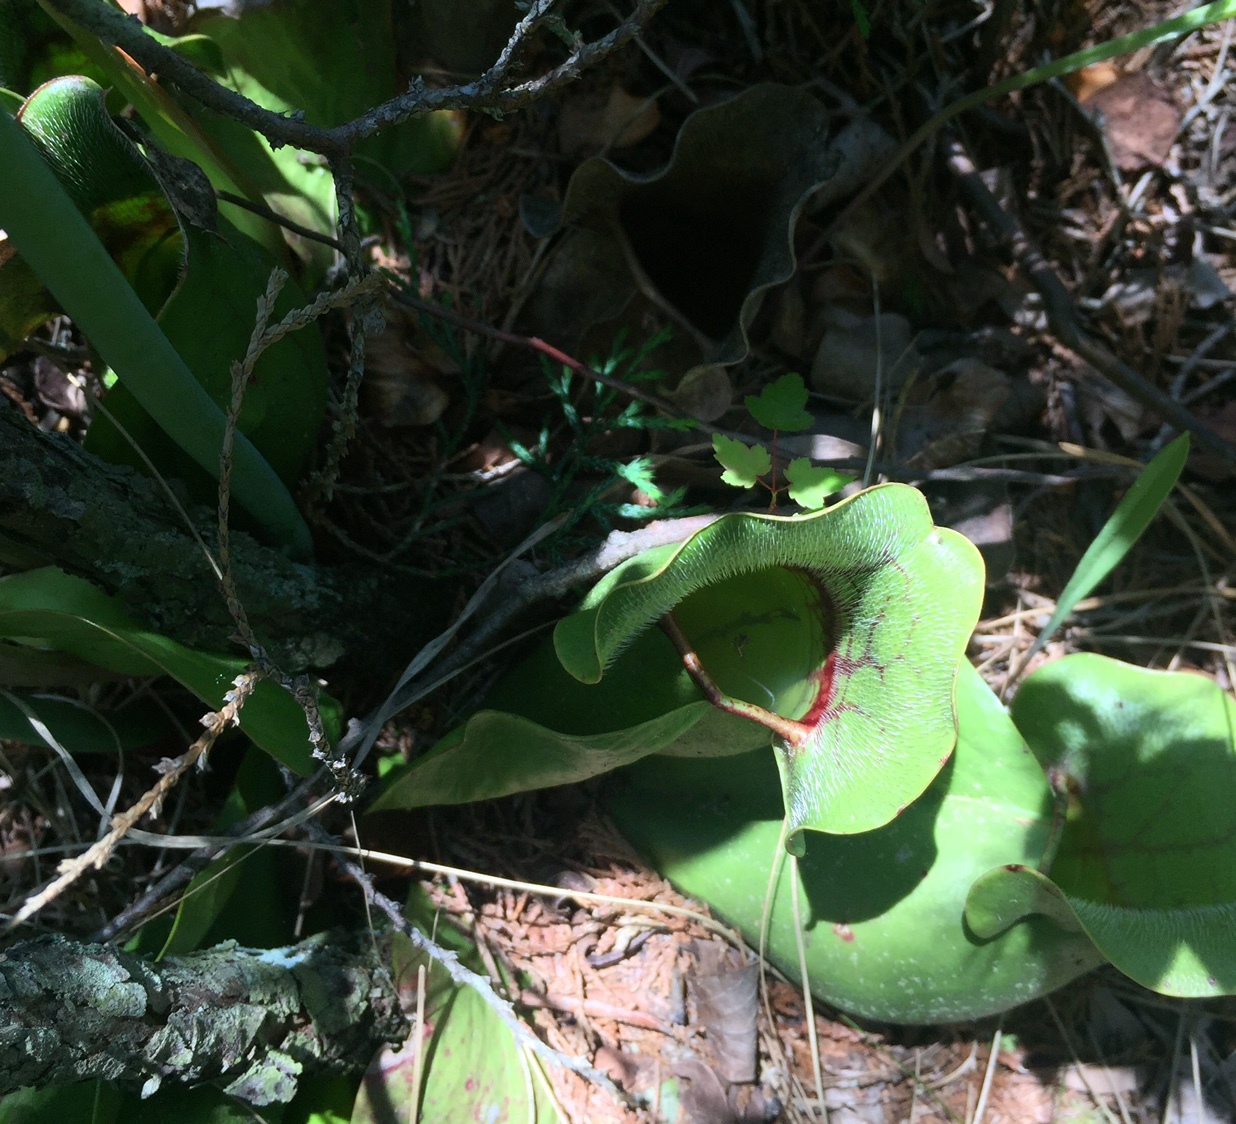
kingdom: Plantae
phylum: Tracheophyta
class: Magnoliopsida
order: Ericales
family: Sarraceniaceae
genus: Sarracenia
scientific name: Sarracenia purpurea
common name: Pitcherplant
